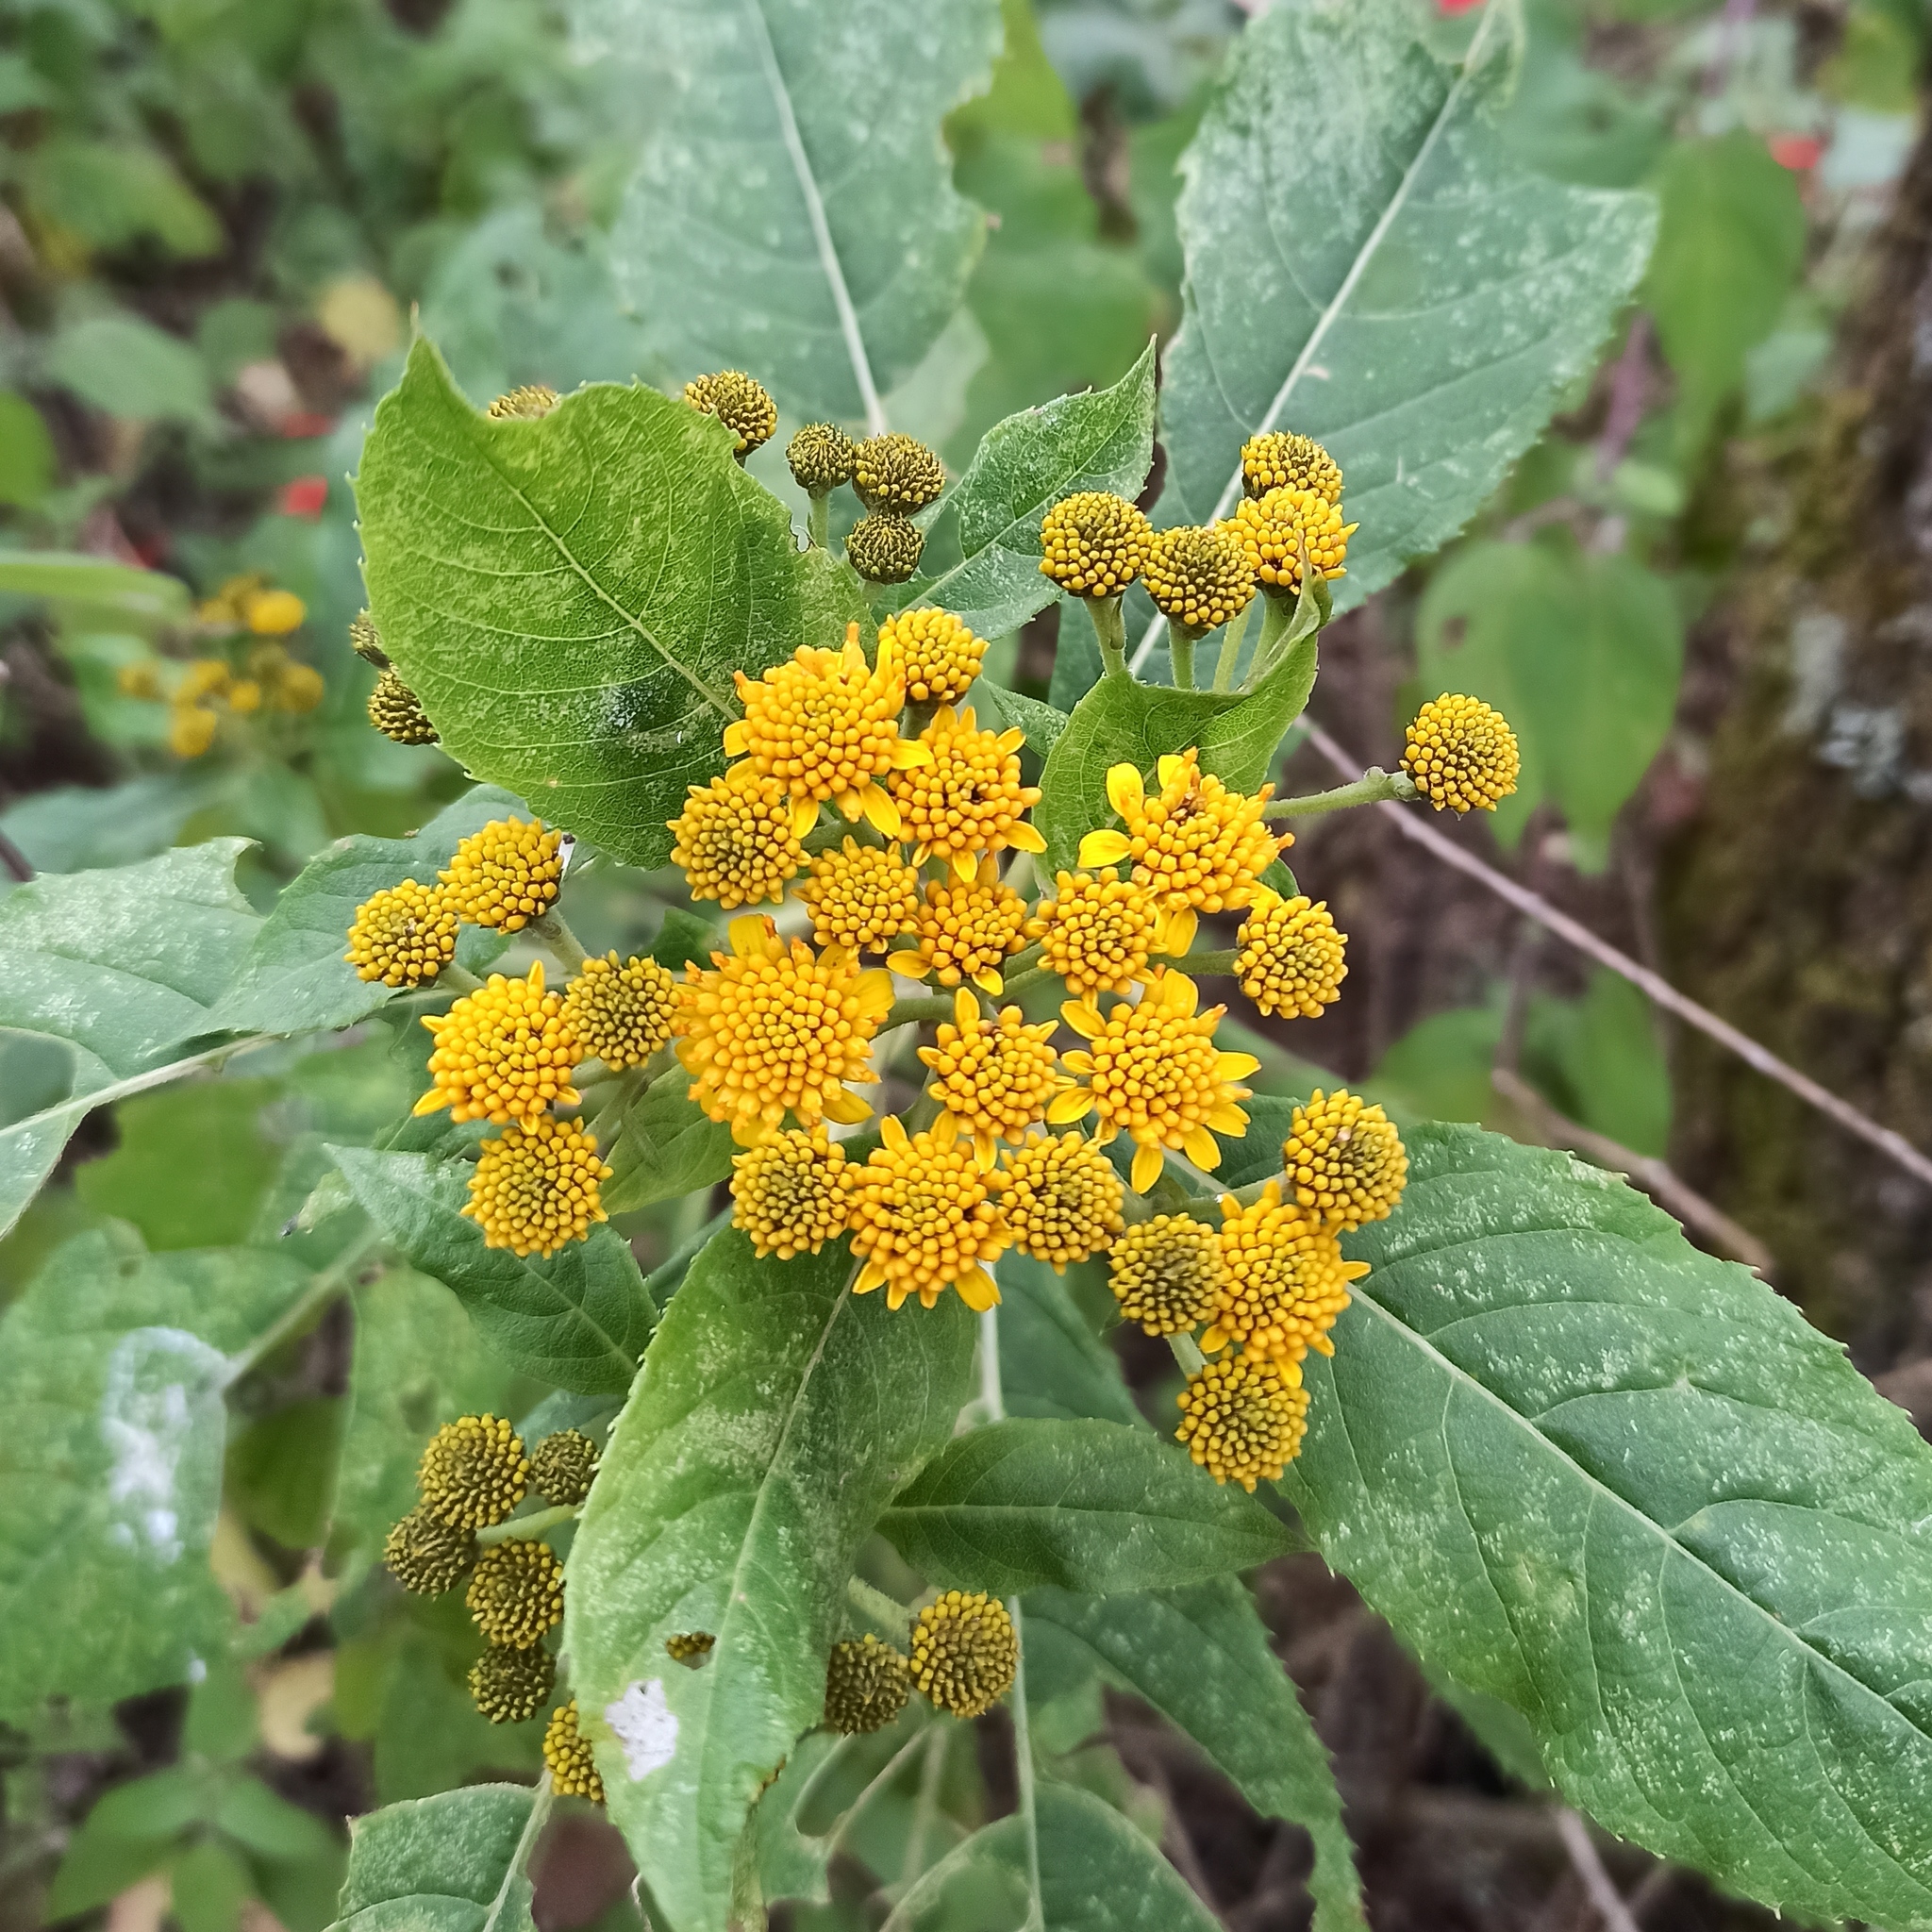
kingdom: Plantae
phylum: Tracheophyta
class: Magnoliopsida
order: Asterales
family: Asteraceae
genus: Verbesina
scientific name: Verbesina oncophora
